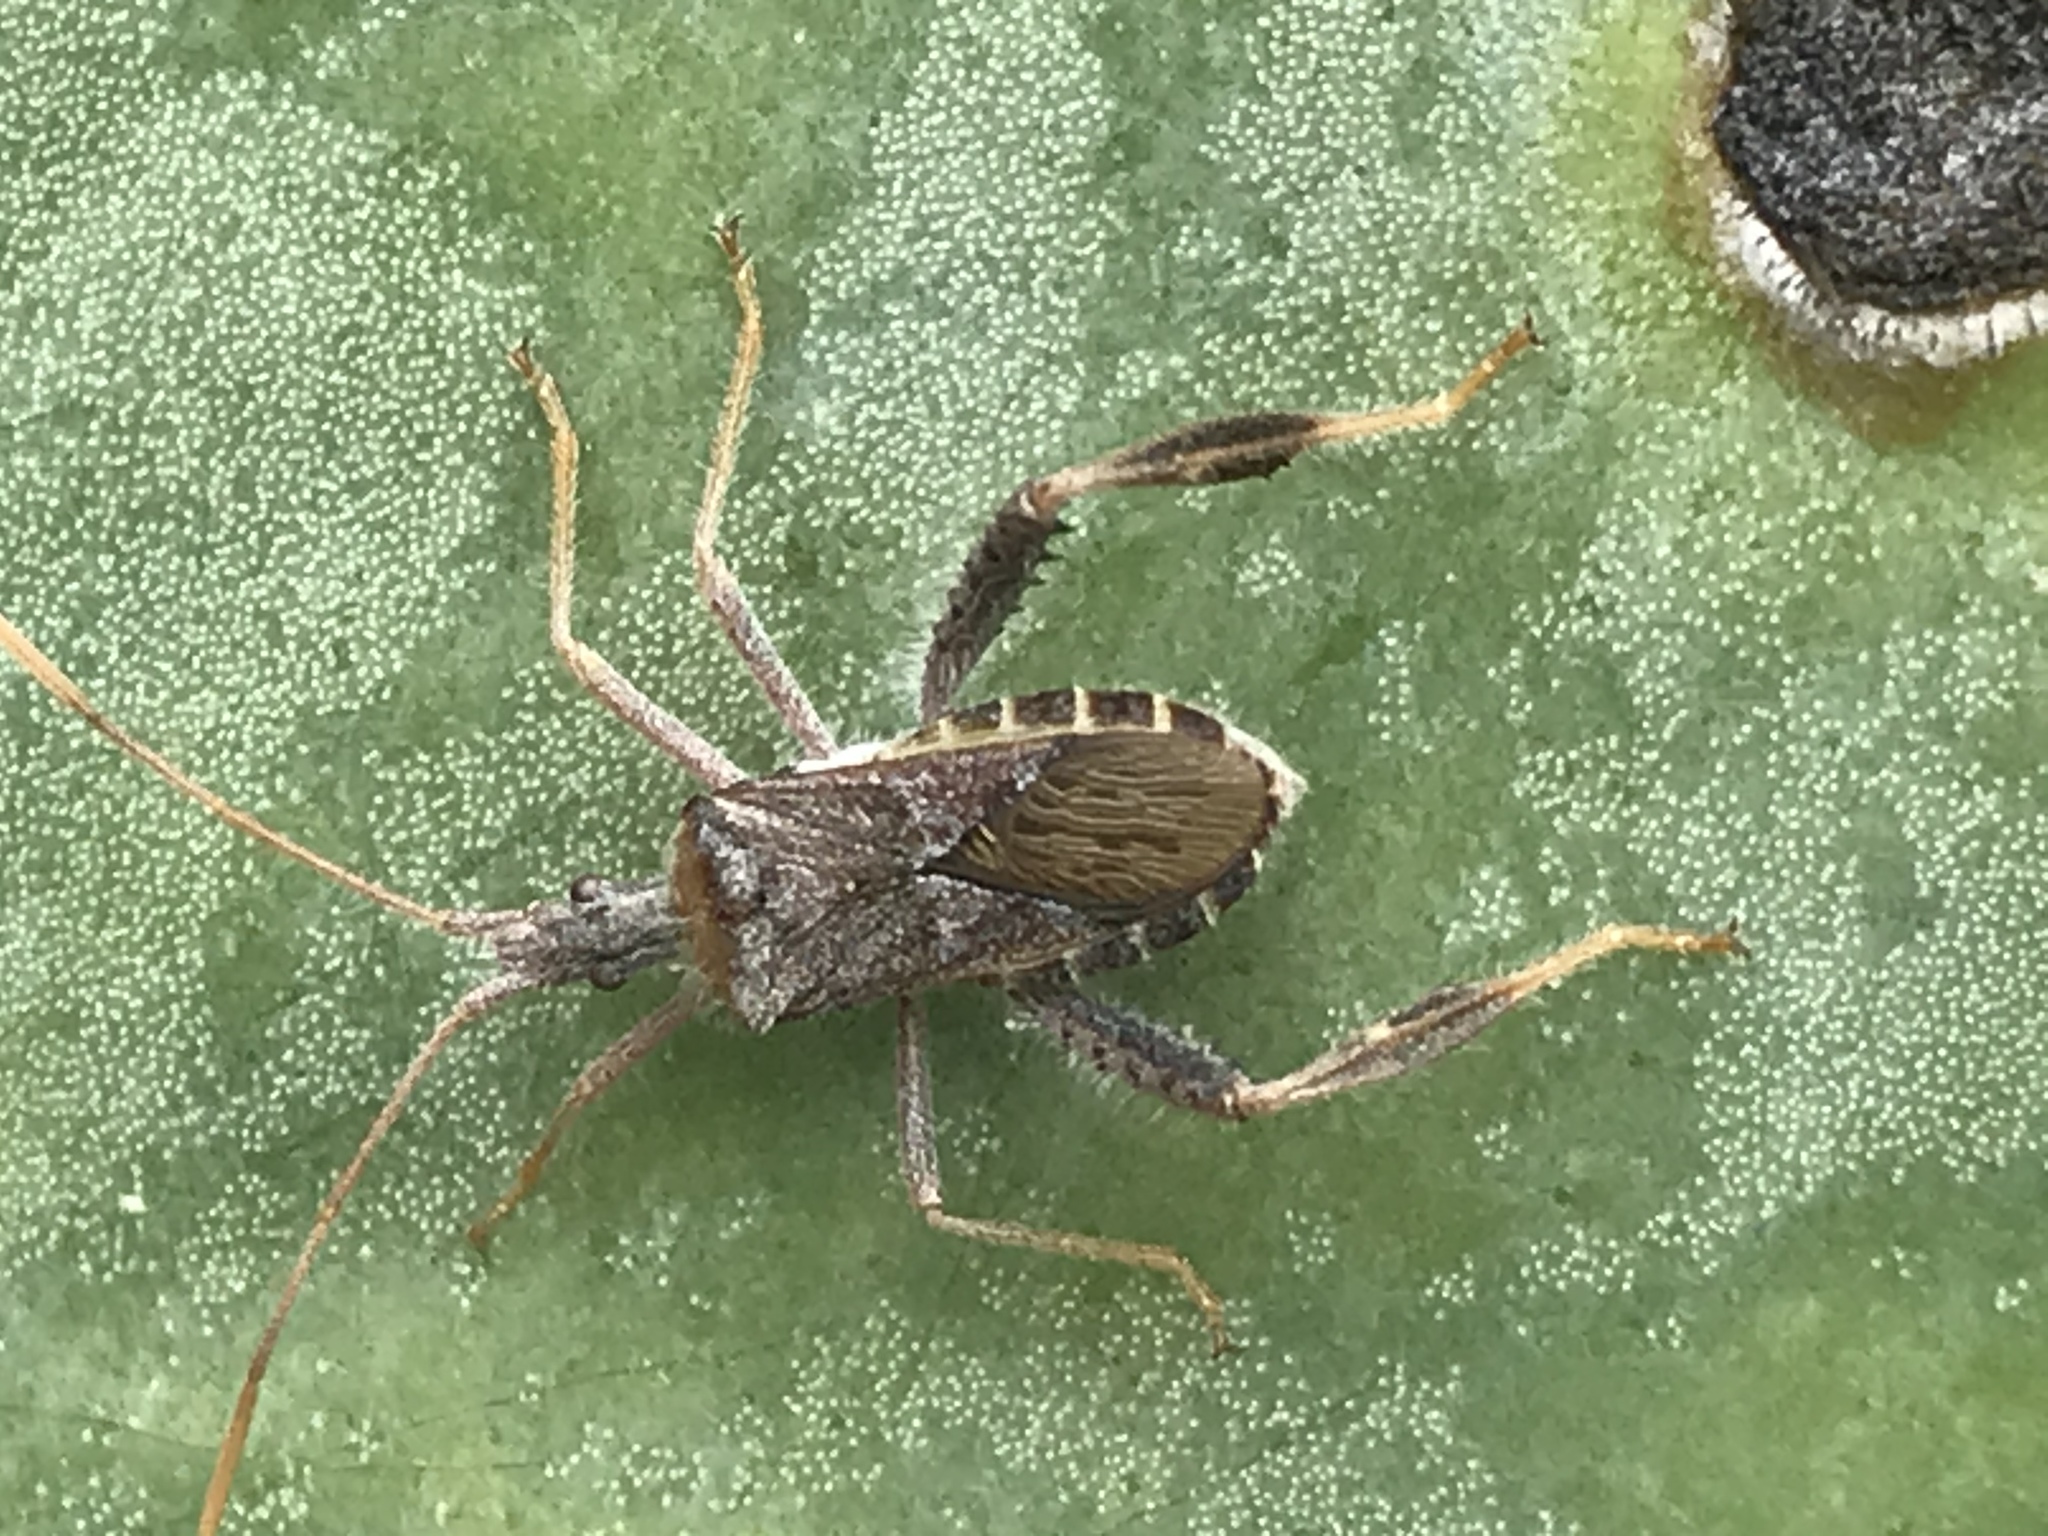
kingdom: Animalia
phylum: Arthropoda
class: Insecta
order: Hemiptera
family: Coreidae
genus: Narnia
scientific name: Narnia femorata
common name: Leaf-footed cactus bug
